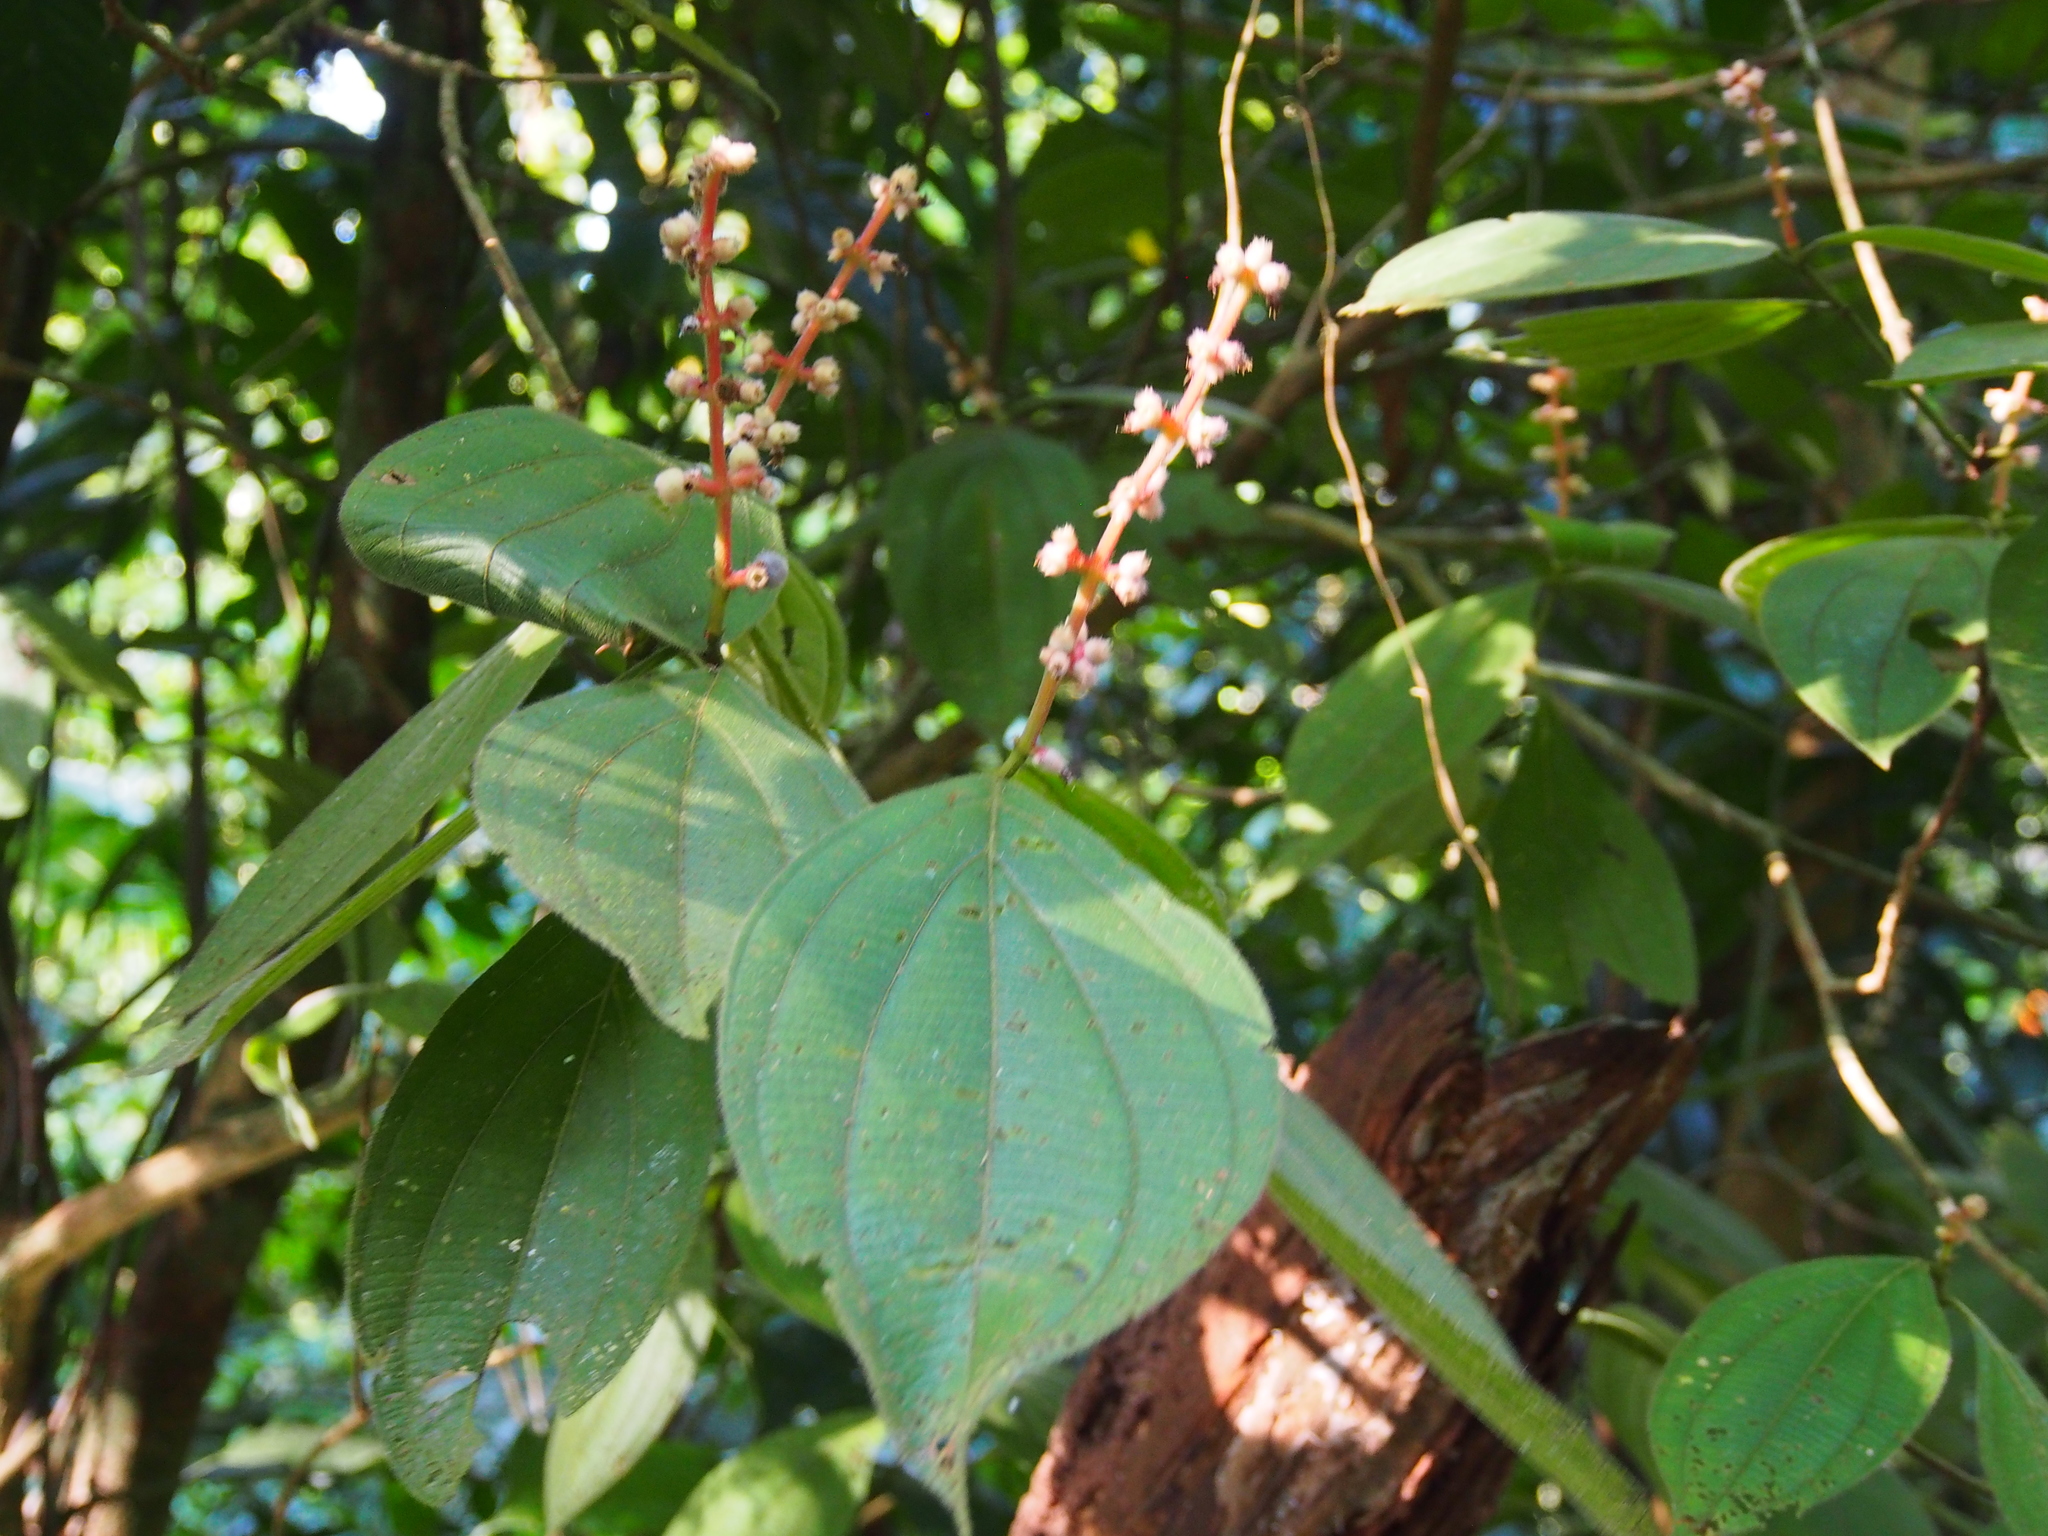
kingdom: Plantae
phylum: Tracheophyta
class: Magnoliopsida
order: Myrtales
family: Melastomataceae
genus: Miconia
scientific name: Miconia nervosa
